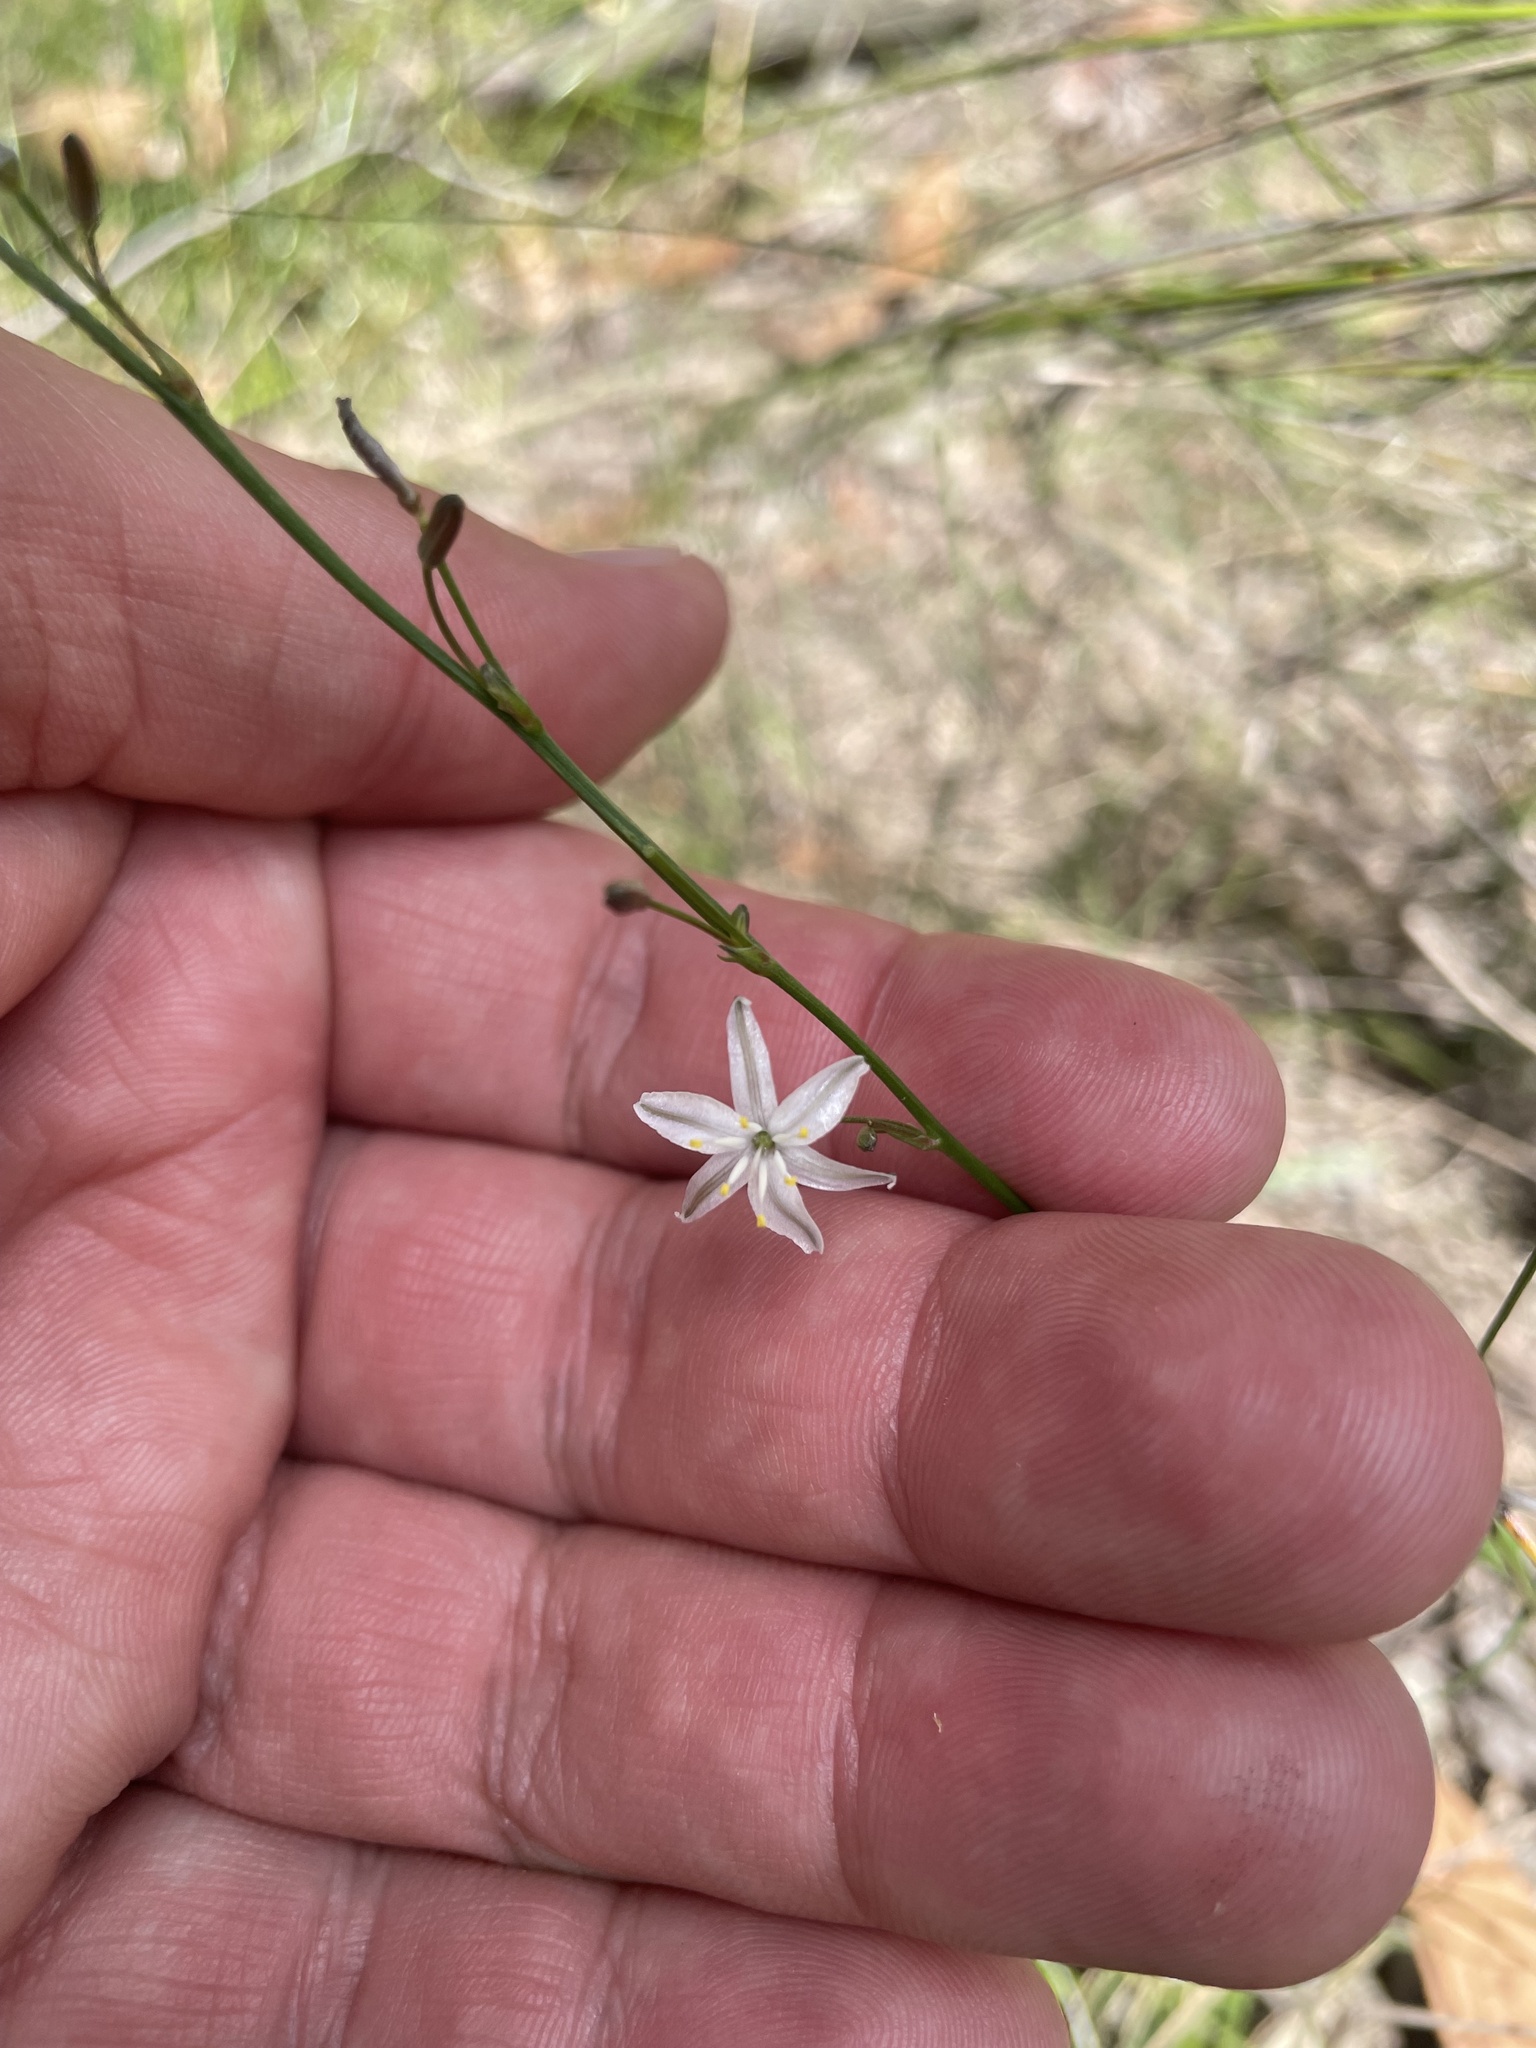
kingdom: Plantae
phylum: Tracheophyta
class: Liliopsida
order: Asparagales
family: Asphodelaceae
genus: Caesia
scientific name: Caesia parviflora
